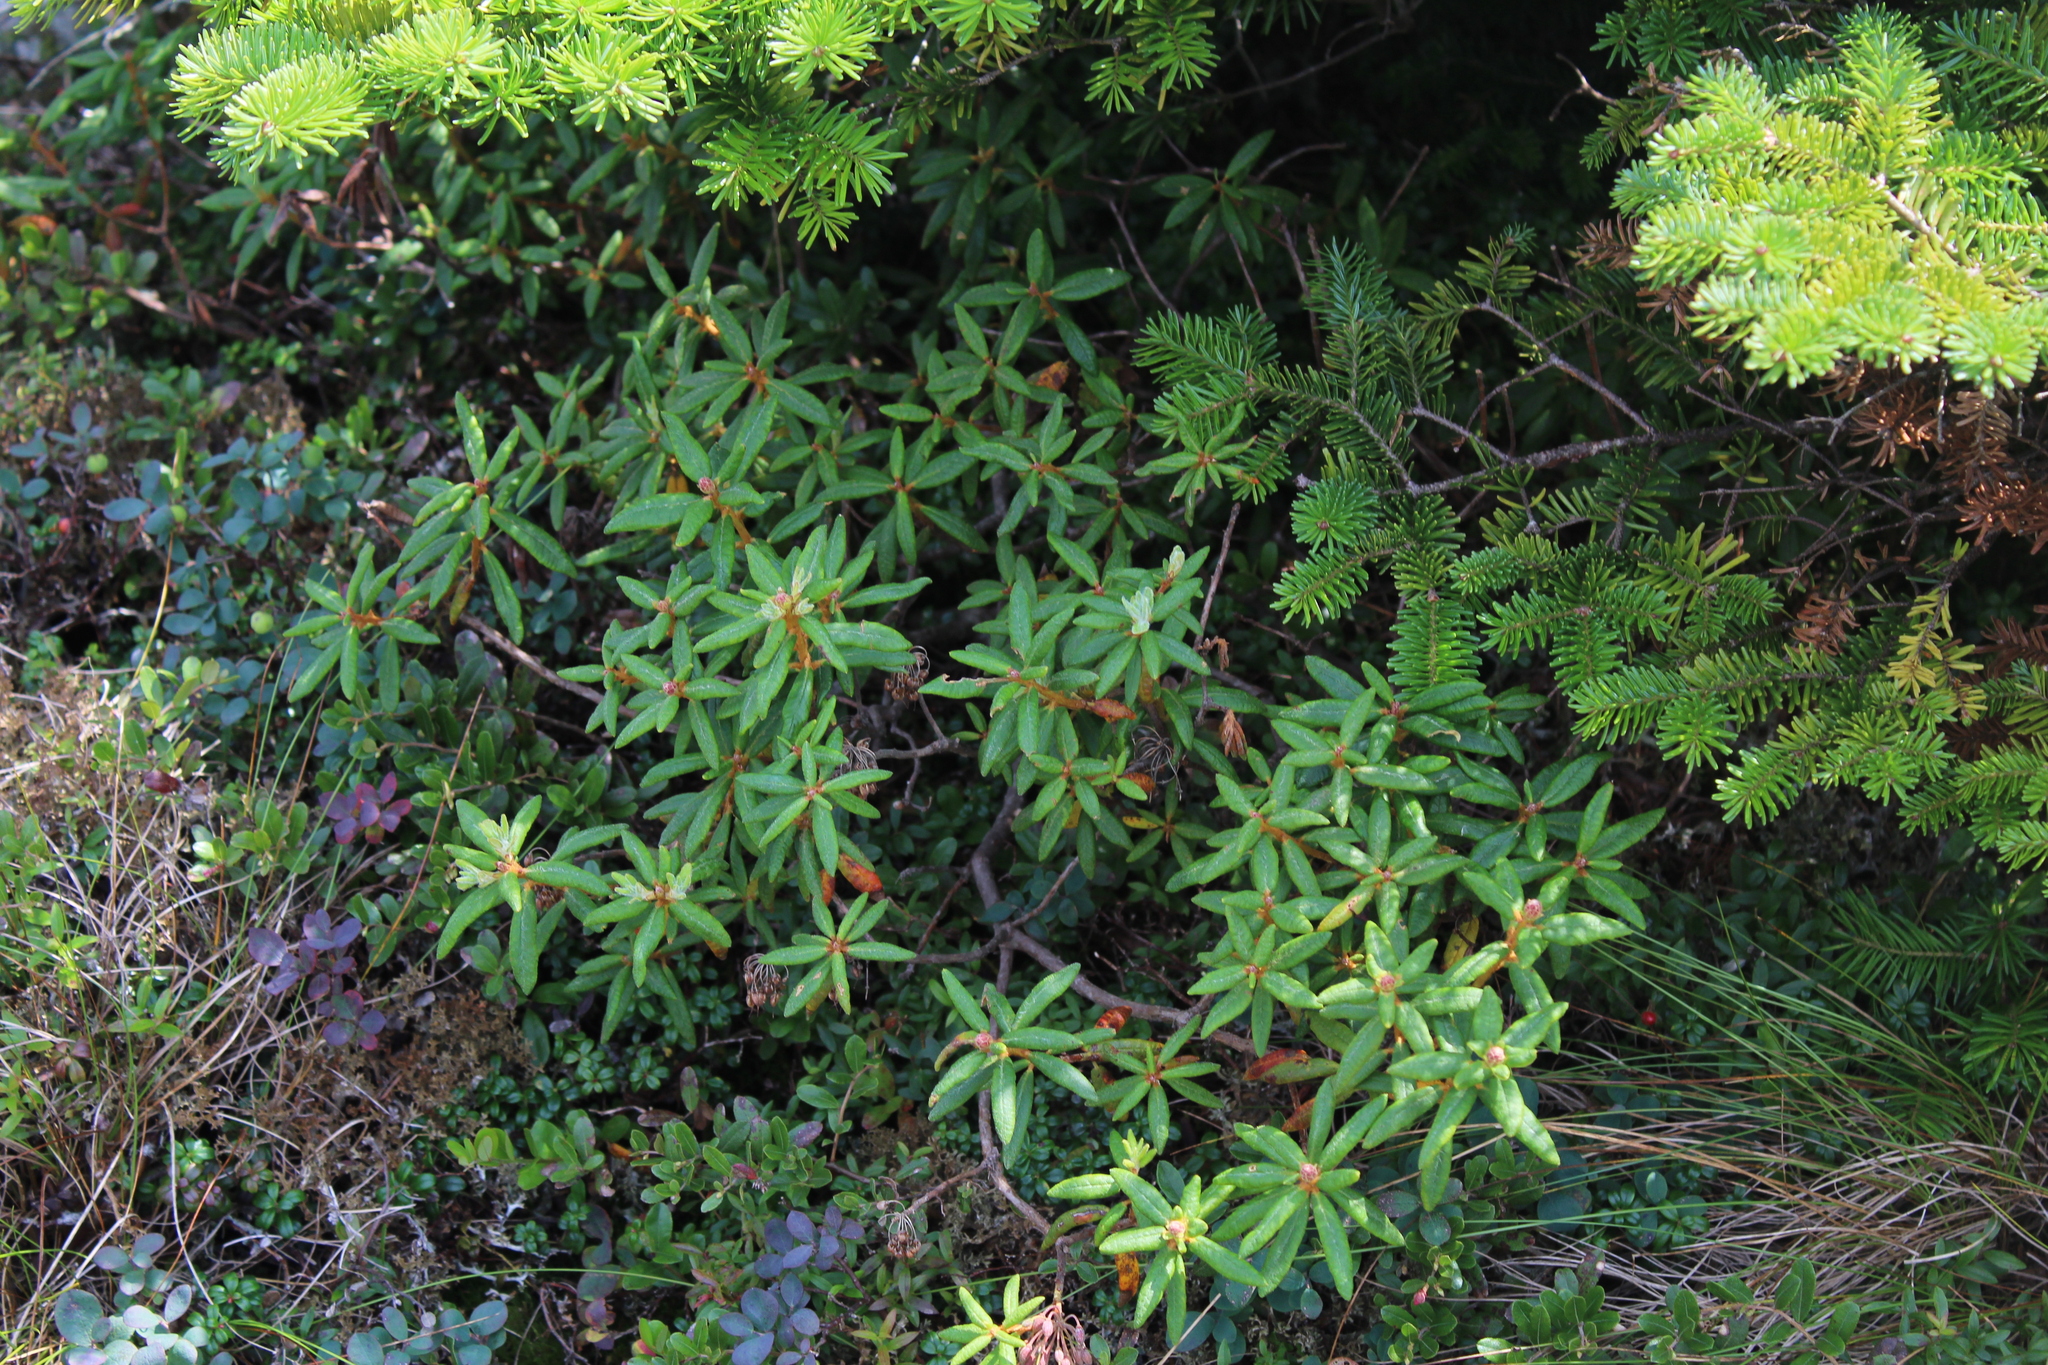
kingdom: Plantae
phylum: Tracheophyta
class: Magnoliopsida
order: Ericales
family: Ericaceae
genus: Rhododendron
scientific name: Rhododendron groenlandicum
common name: Bog labrador tea
